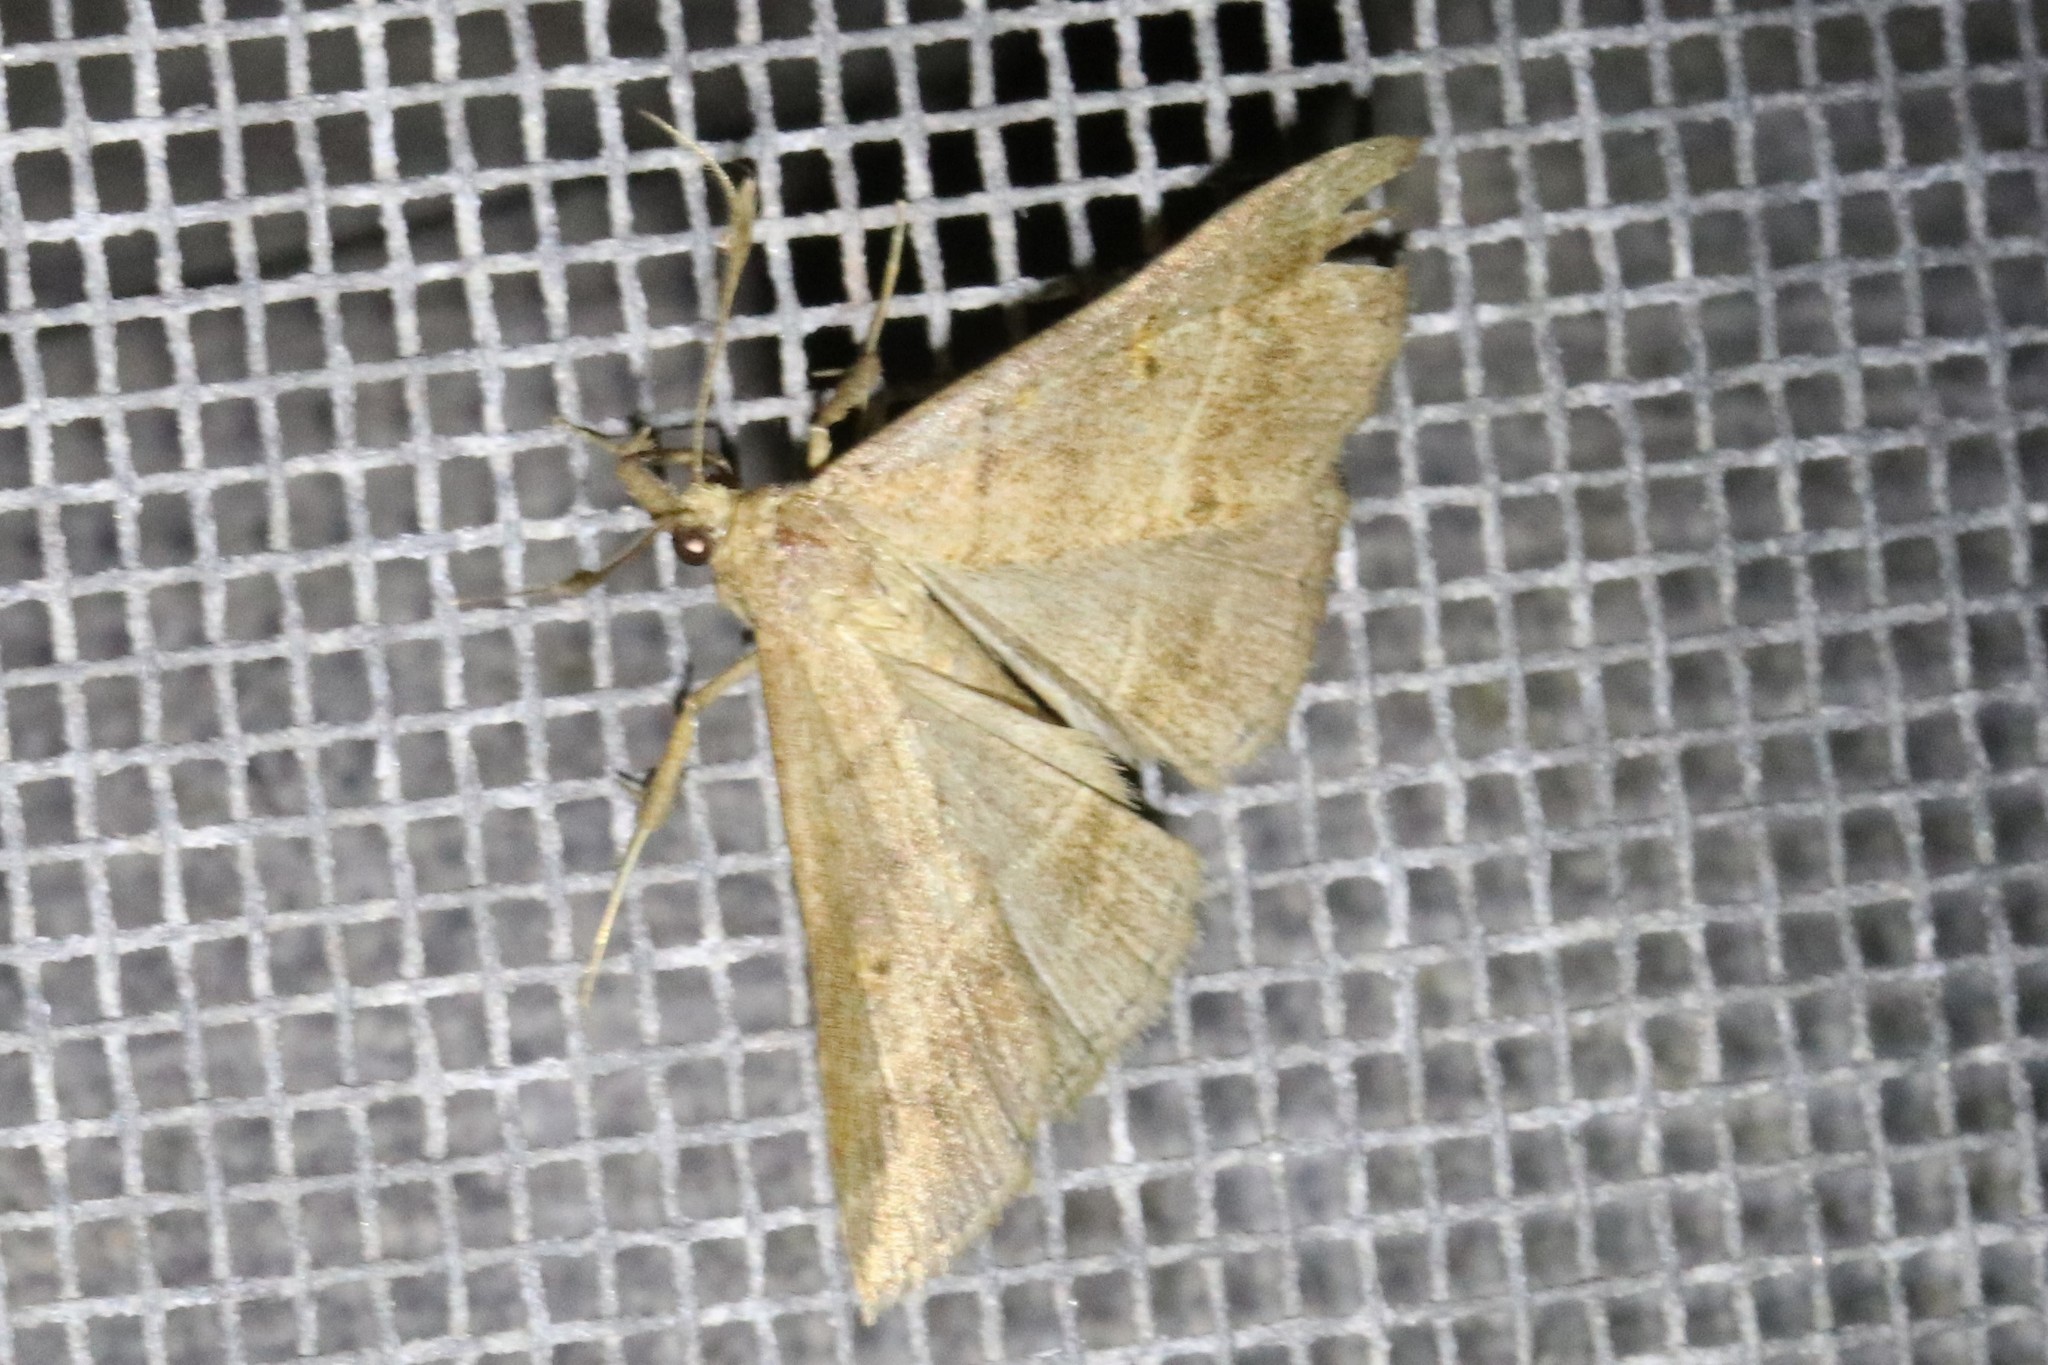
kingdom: Animalia
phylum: Arthropoda
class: Insecta
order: Lepidoptera
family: Erebidae
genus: Renia
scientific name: Renia flavipunctalis
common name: Yellow-spotted renia moth
